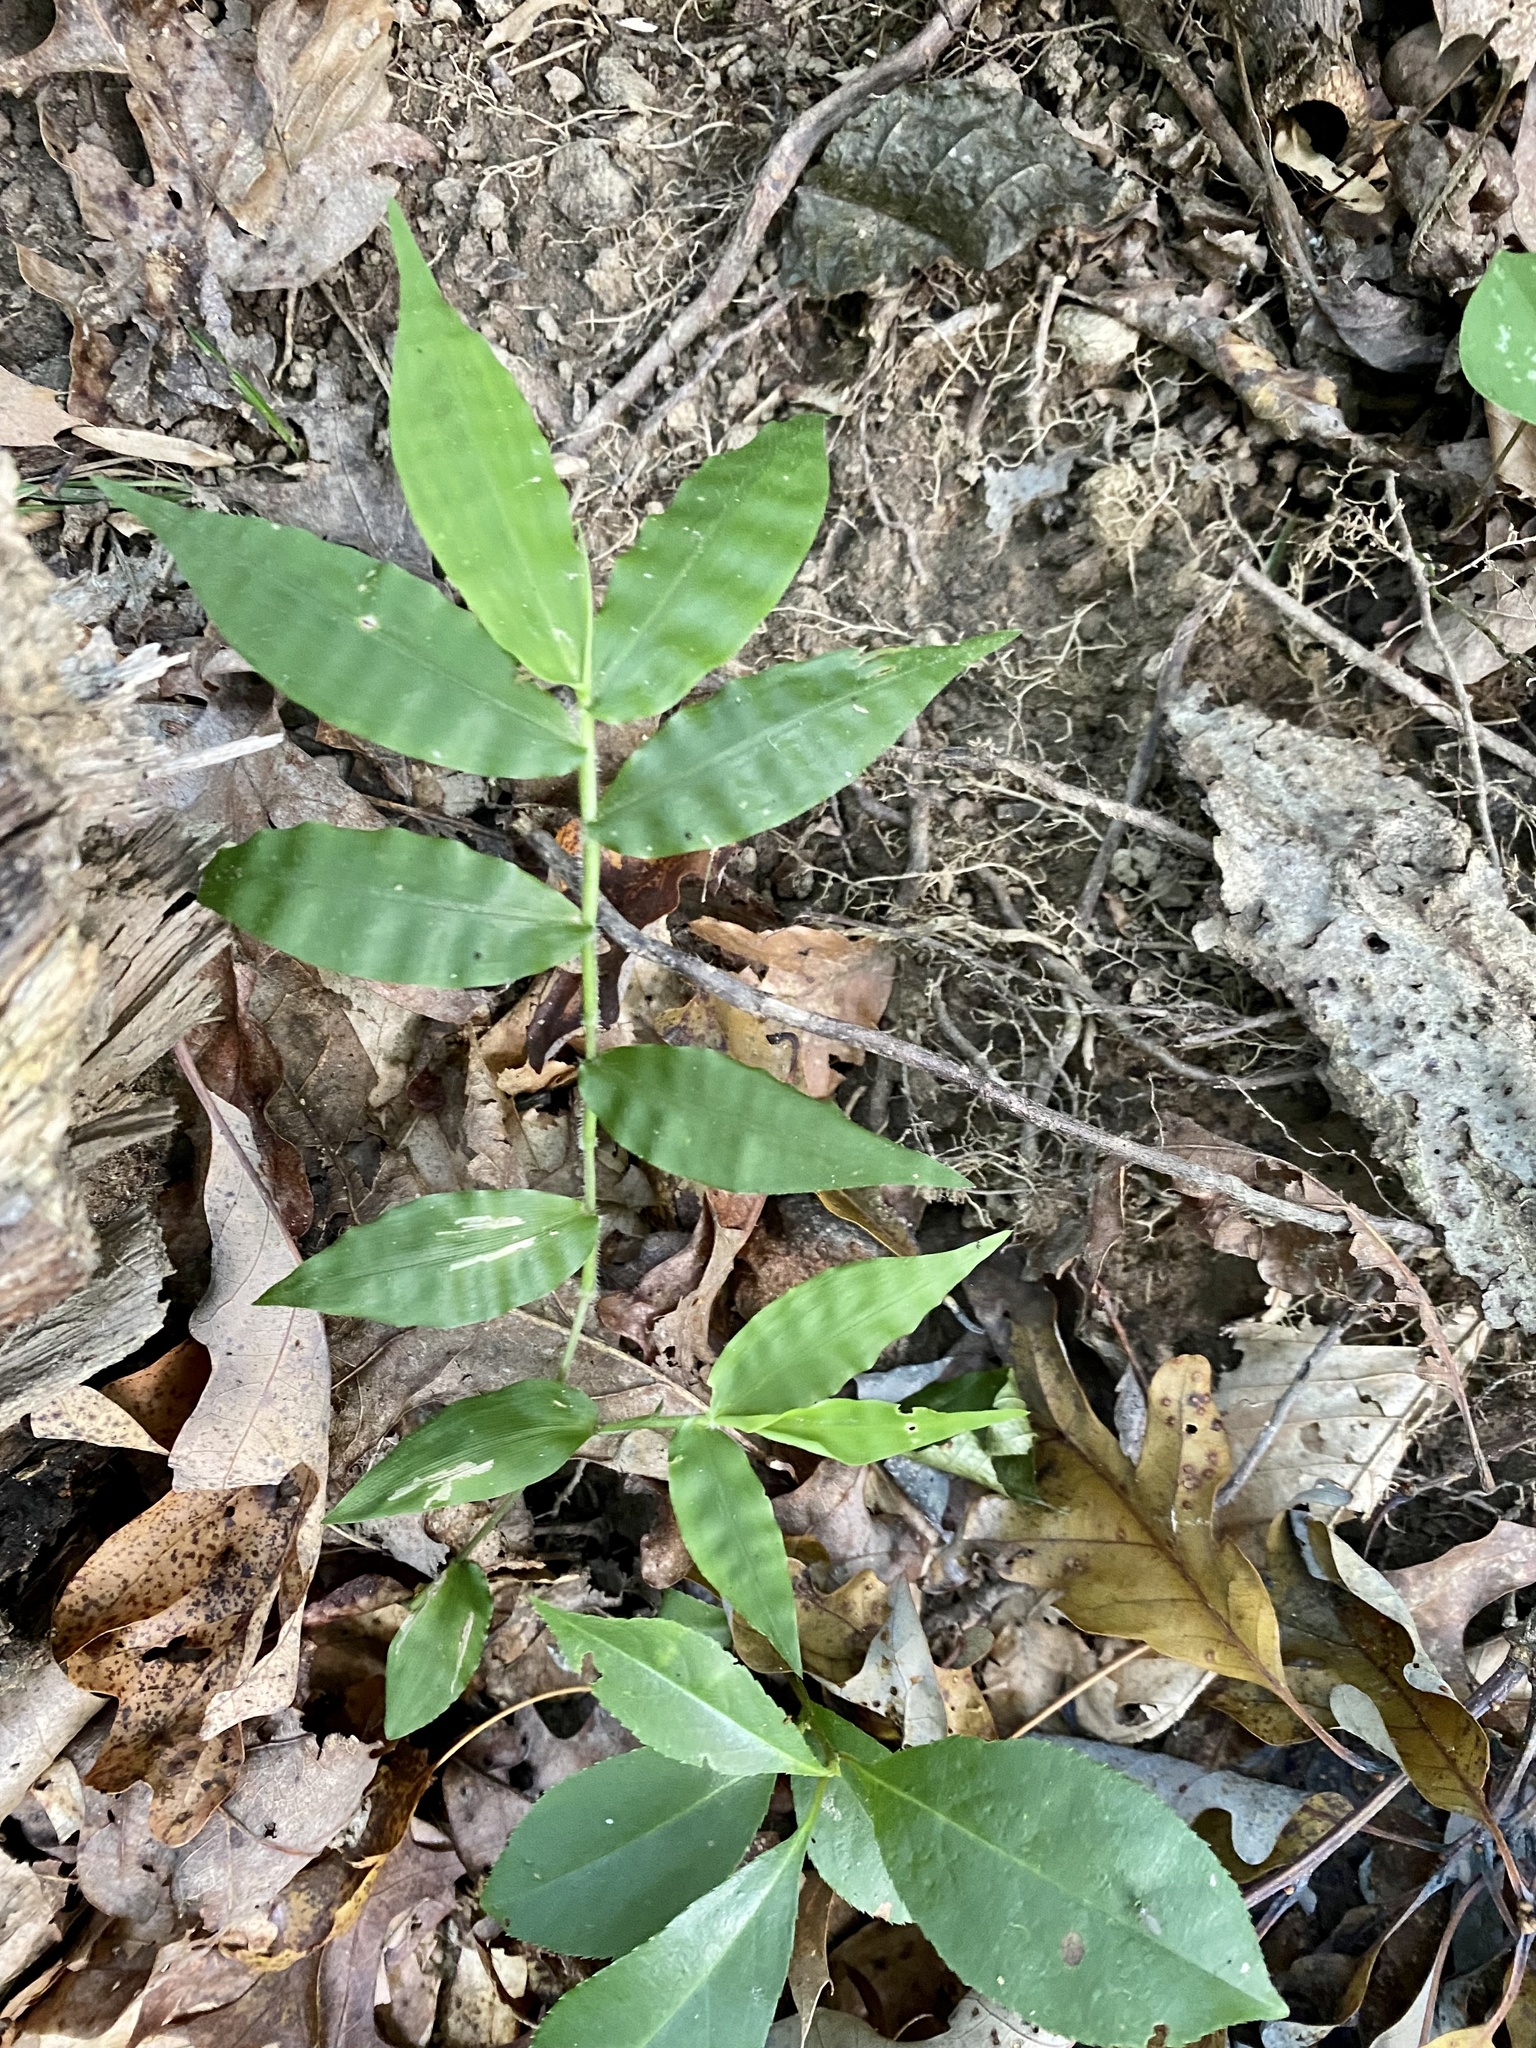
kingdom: Plantae
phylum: Tracheophyta
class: Liliopsida
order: Poales
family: Poaceae
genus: Oplismenus
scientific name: Oplismenus undulatifolius
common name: Wavyleaf basketgrass
